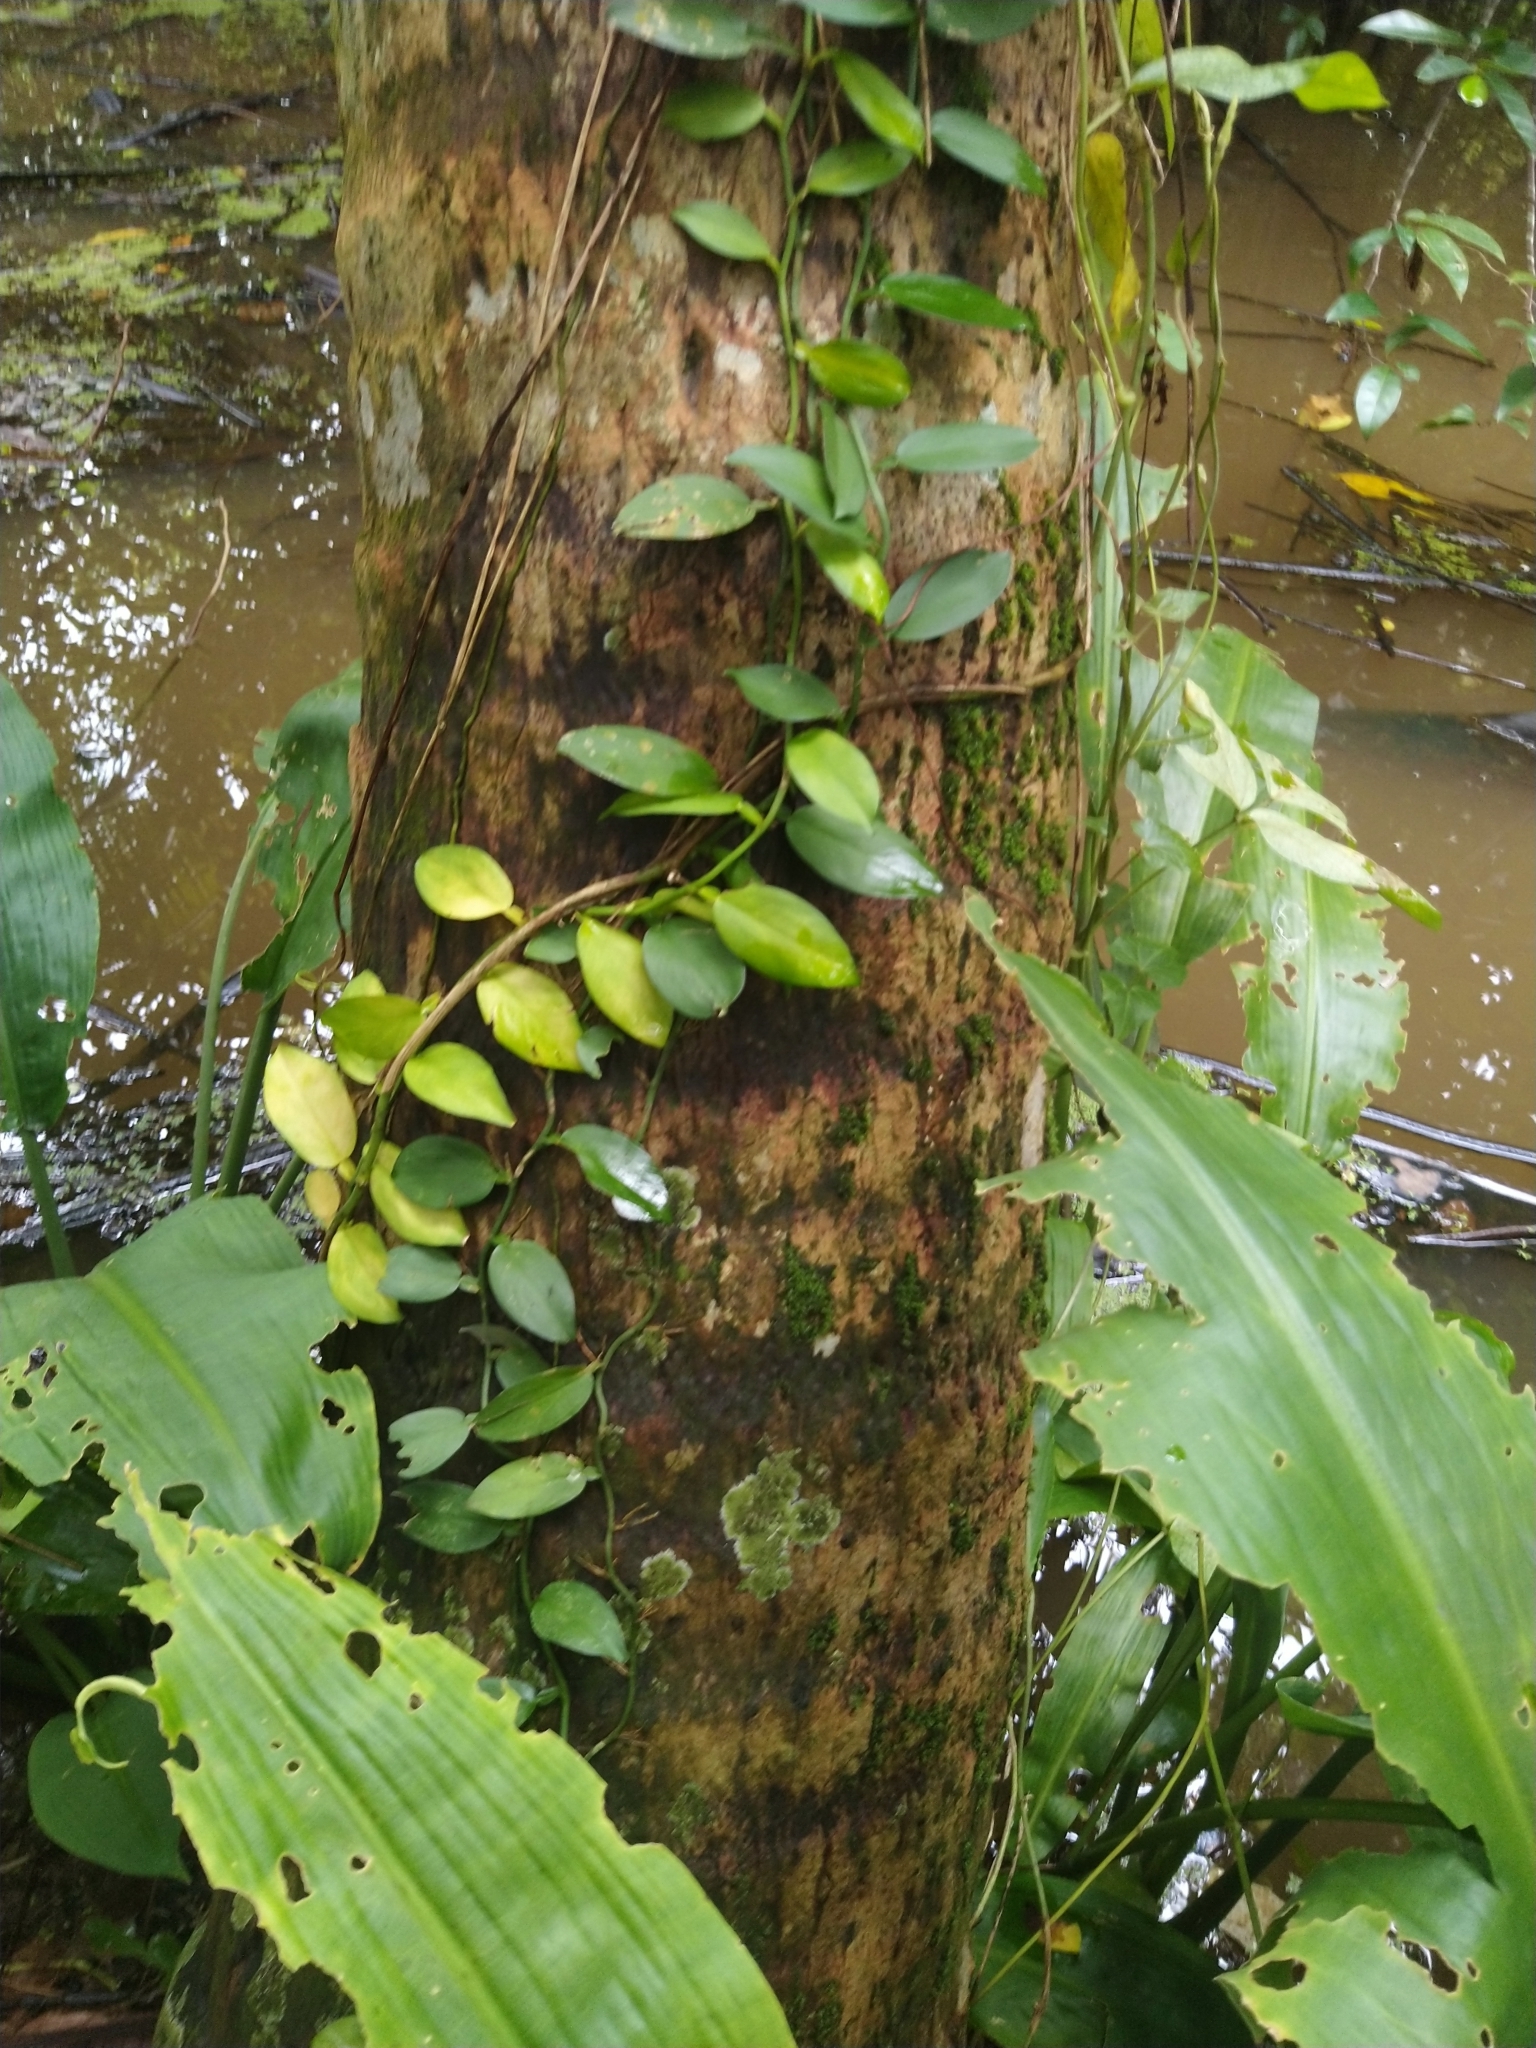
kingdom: Plantae
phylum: Tracheophyta
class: Liliopsida
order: Alismatales
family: Araceae
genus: Pothos
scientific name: Pothos chinensis
